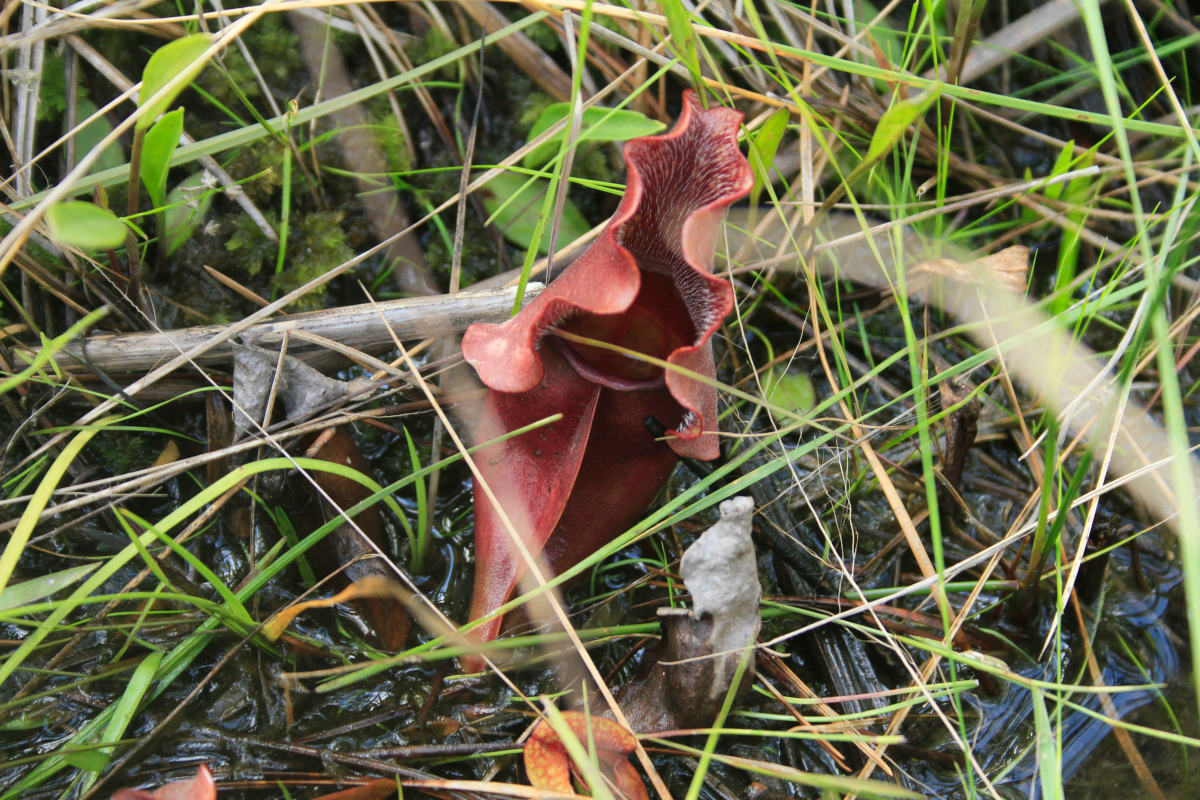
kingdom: Plantae
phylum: Tracheophyta
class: Magnoliopsida
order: Ericales
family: Sarraceniaceae
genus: Sarracenia
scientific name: Sarracenia purpurea
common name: Pitcherplant
